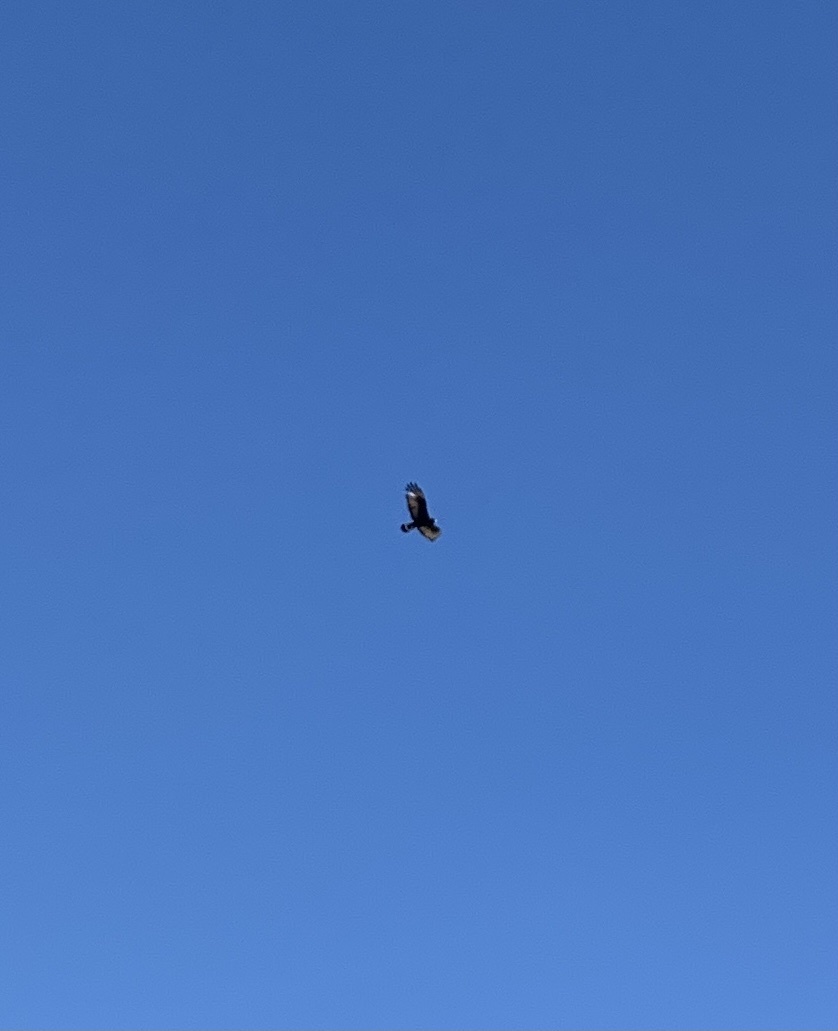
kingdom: Animalia
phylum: Chordata
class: Aves
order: Accipitriformes
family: Accipitridae
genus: Buteo
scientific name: Buteo albonotatus
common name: Zone-tailed hawk
